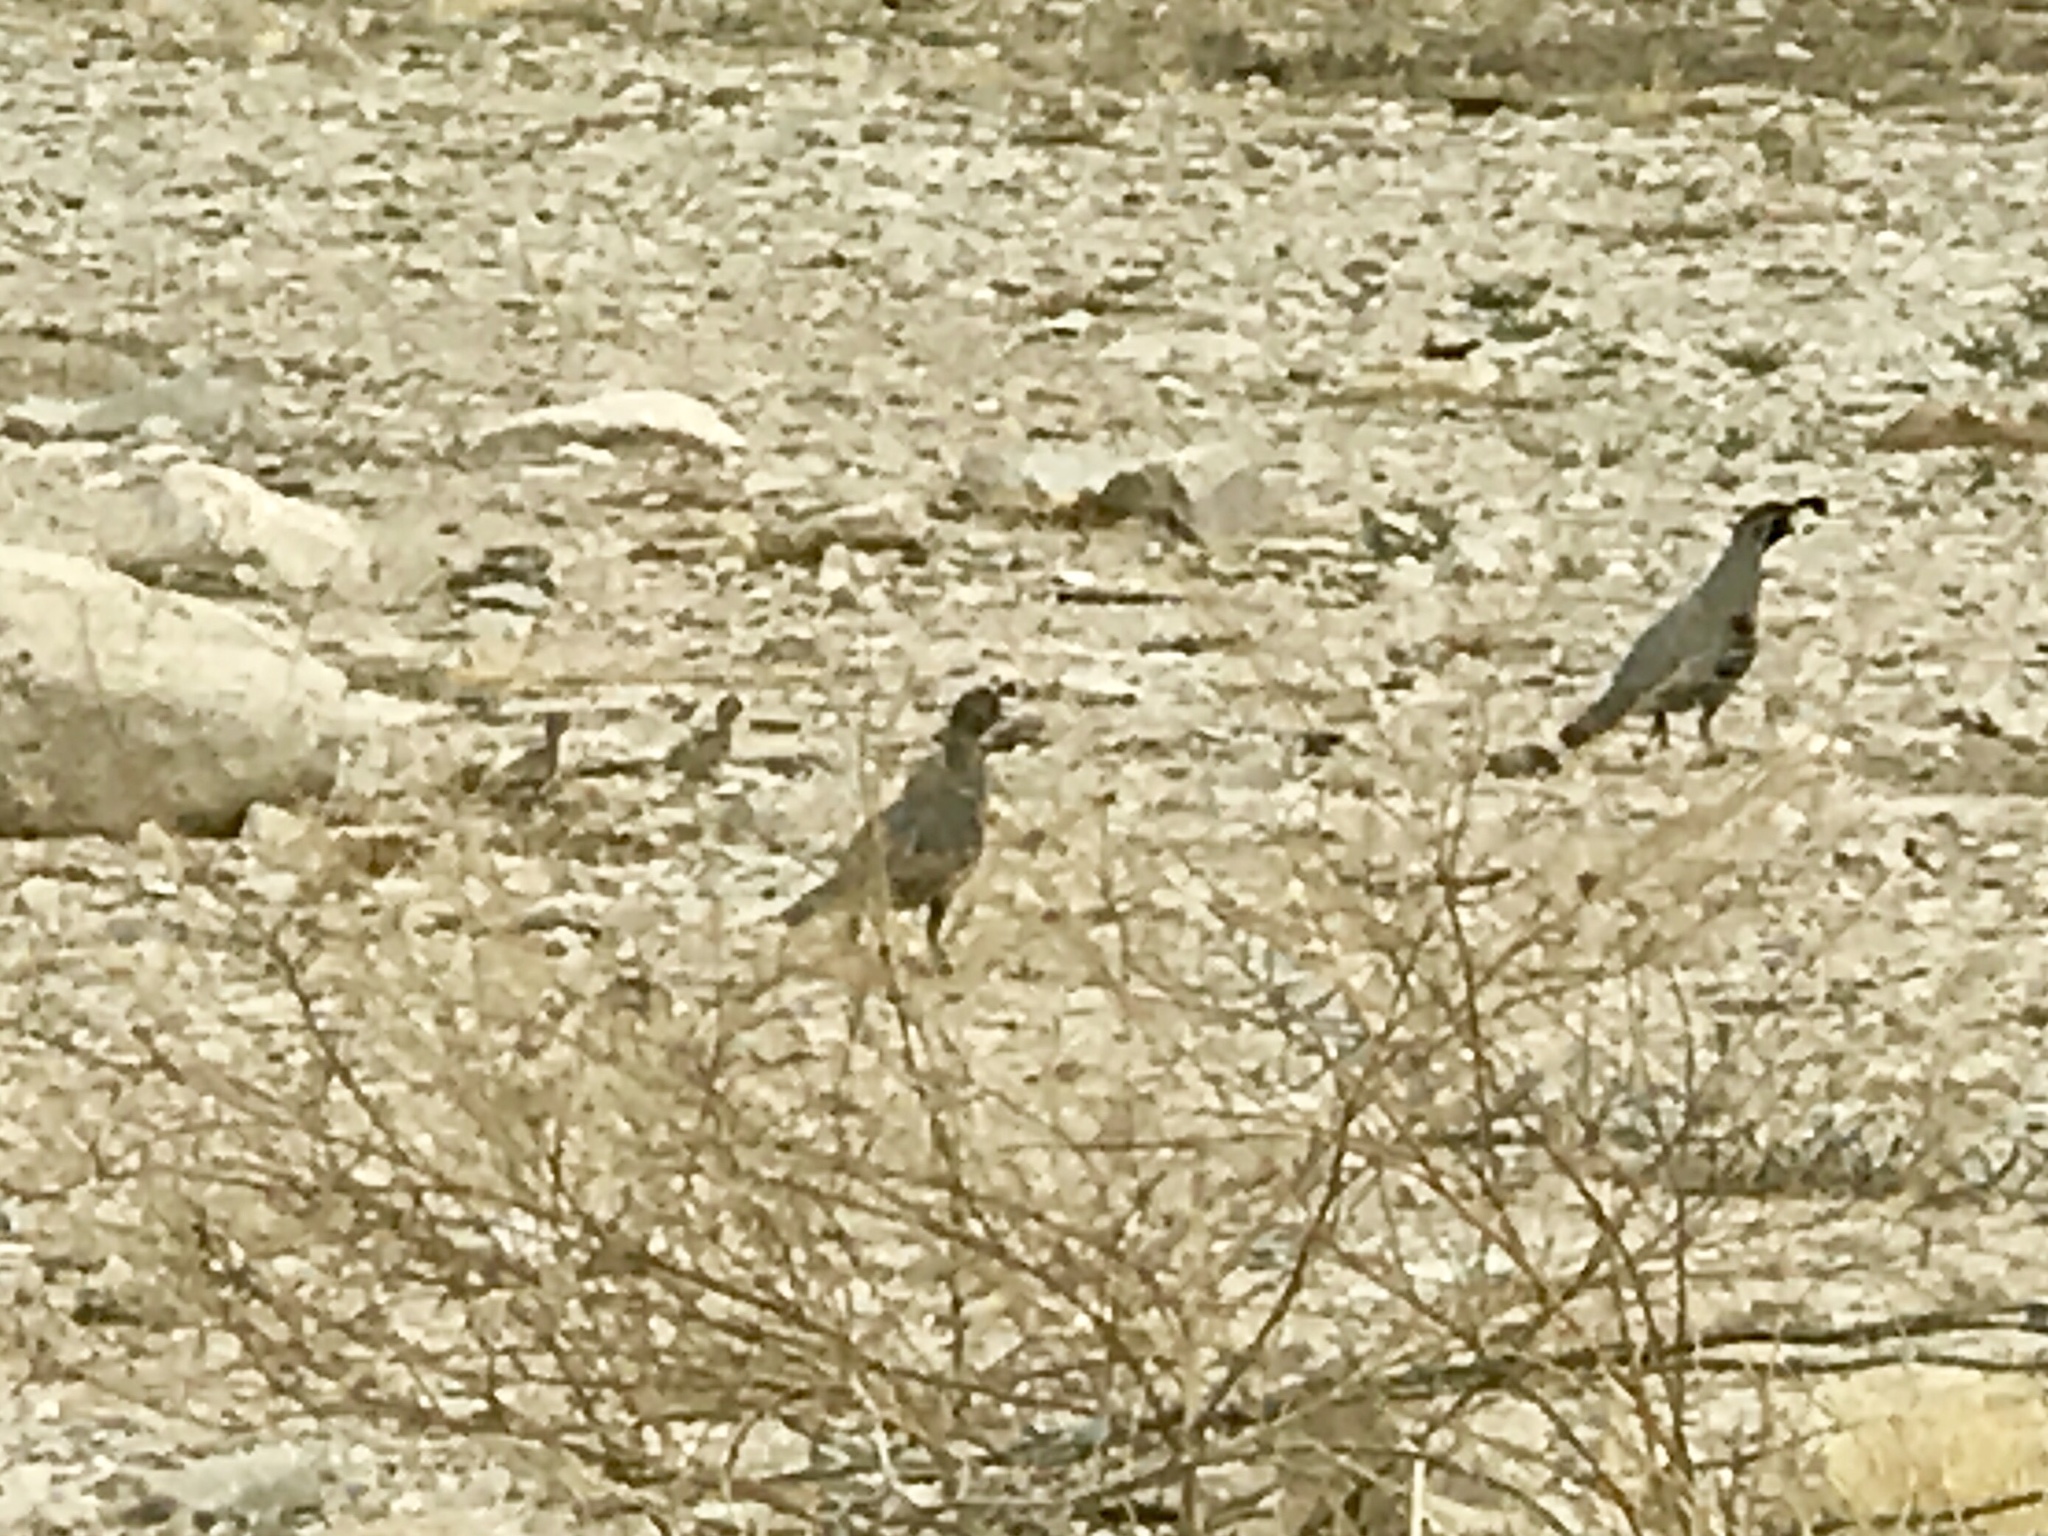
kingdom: Animalia
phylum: Chordata
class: Aves
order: Galliformes
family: Odontophoridae
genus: Callipepla
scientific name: Callipepla gambelii
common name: Gambel's quail
